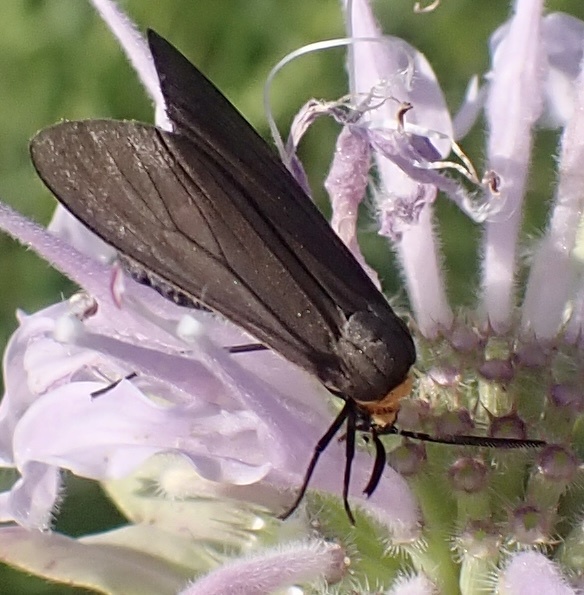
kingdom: Animalia
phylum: Arthropoda
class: Insecta
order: Lepidoptera
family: Erebidae
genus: Cisseps
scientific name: Cisseps fulvicollis
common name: Yellow-collared scape moth
